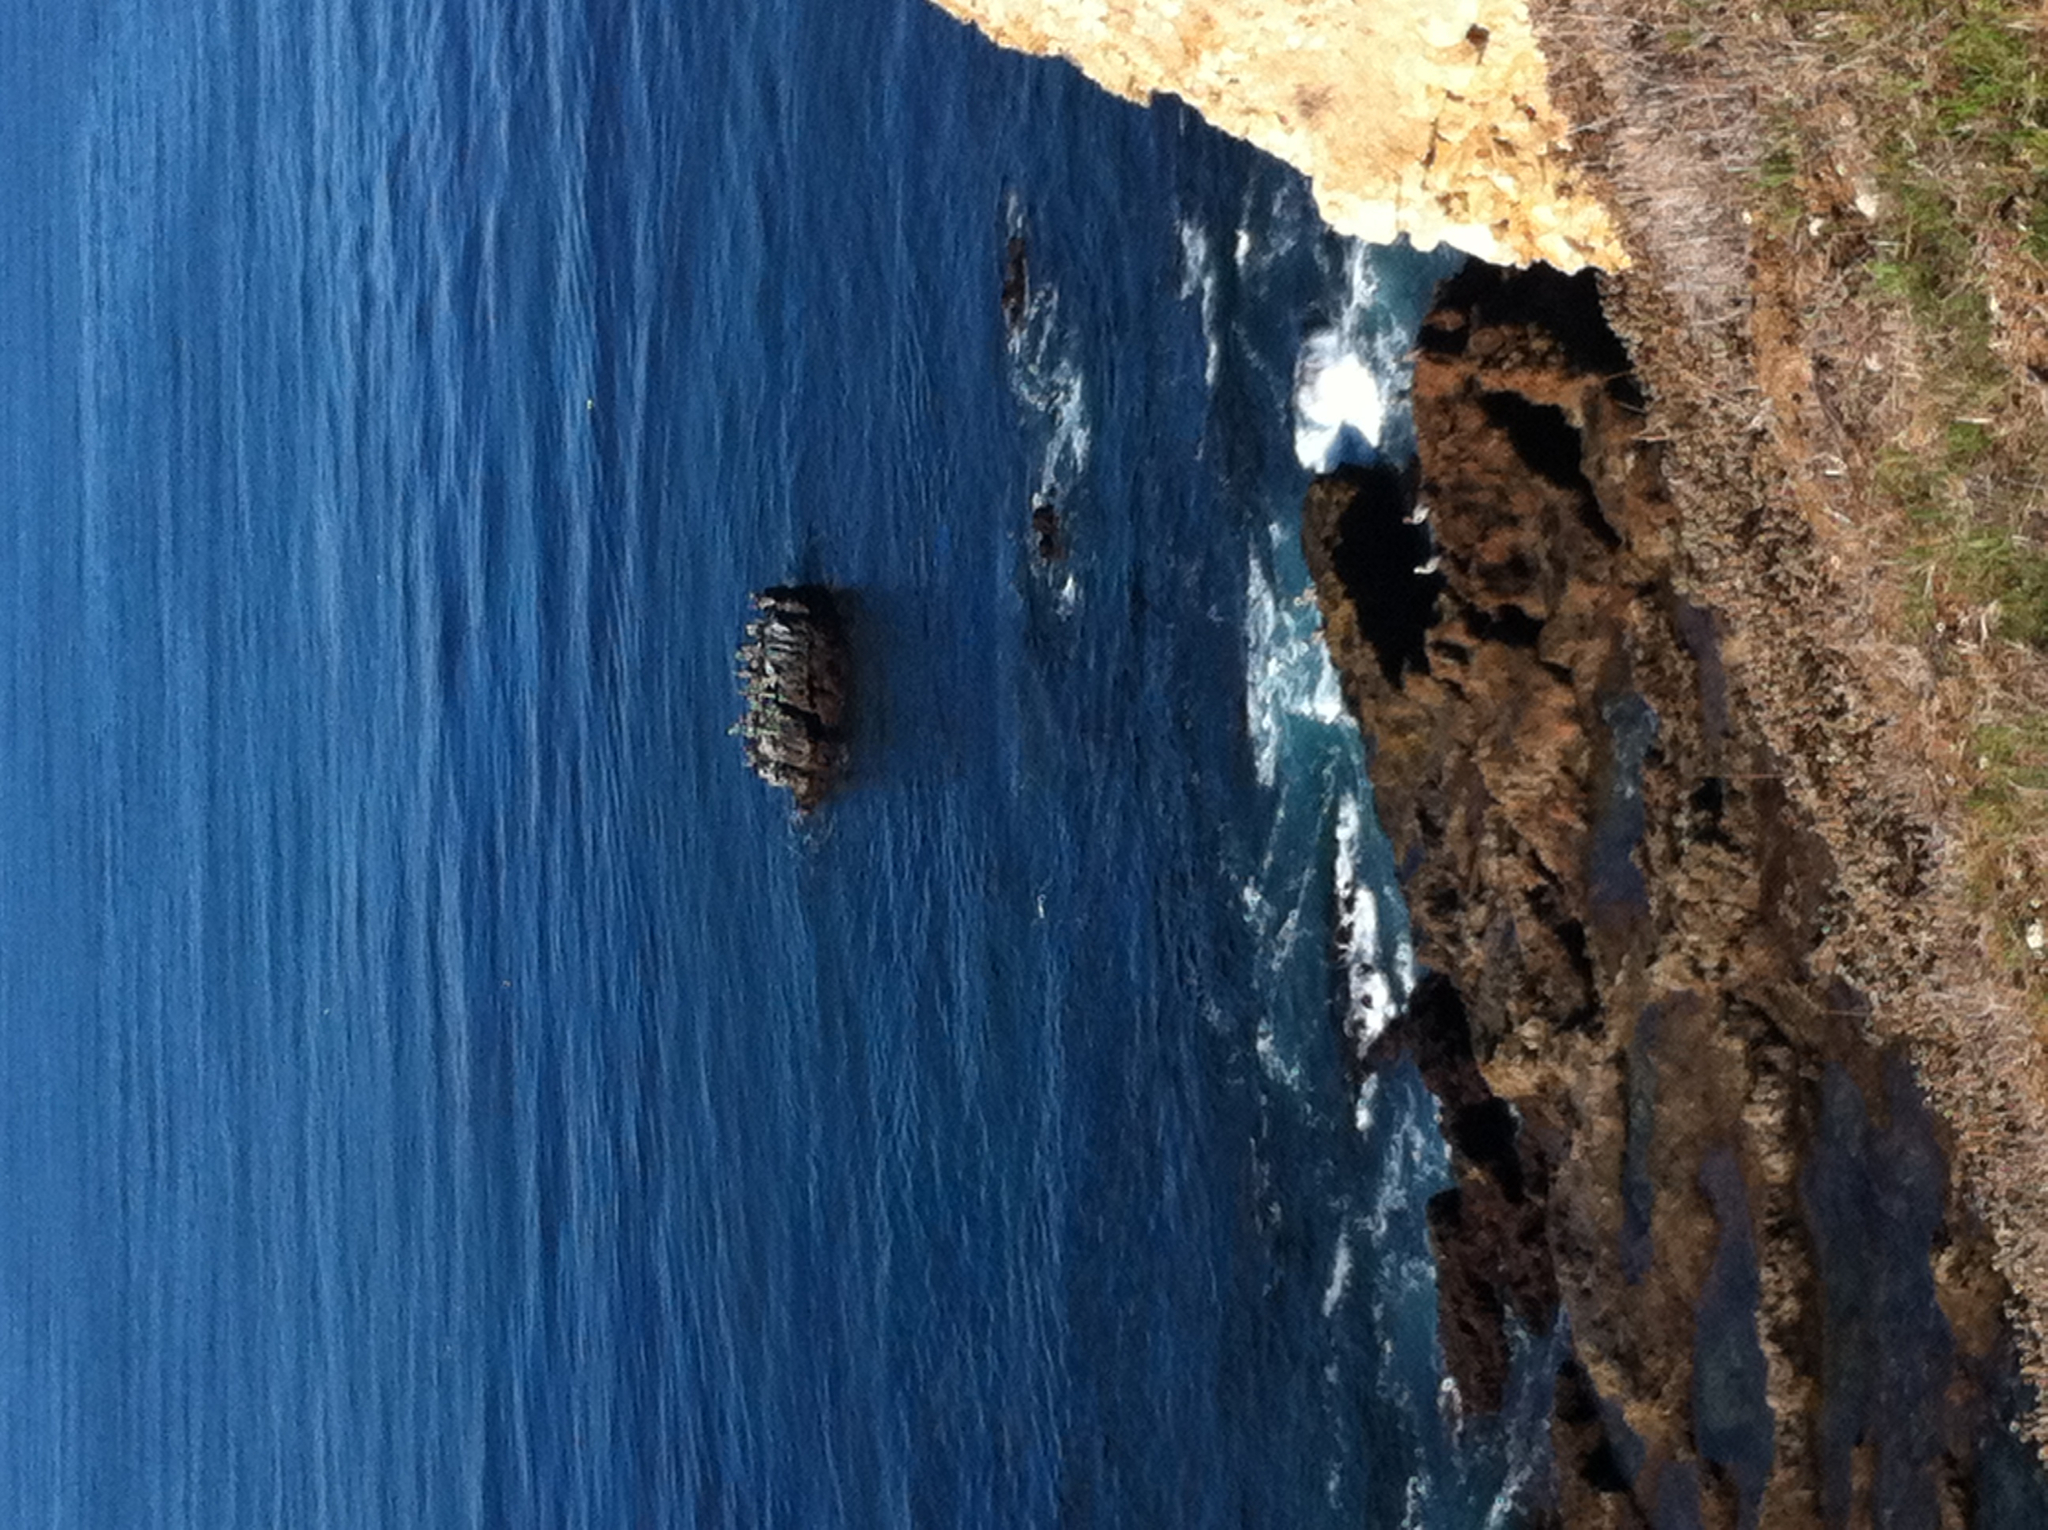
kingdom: Animalia
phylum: Chordata
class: Aves
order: Pelecaniformes
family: Pelecanidae
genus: Pelecanus
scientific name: Pelecanus occidentalis
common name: Brown pelican
